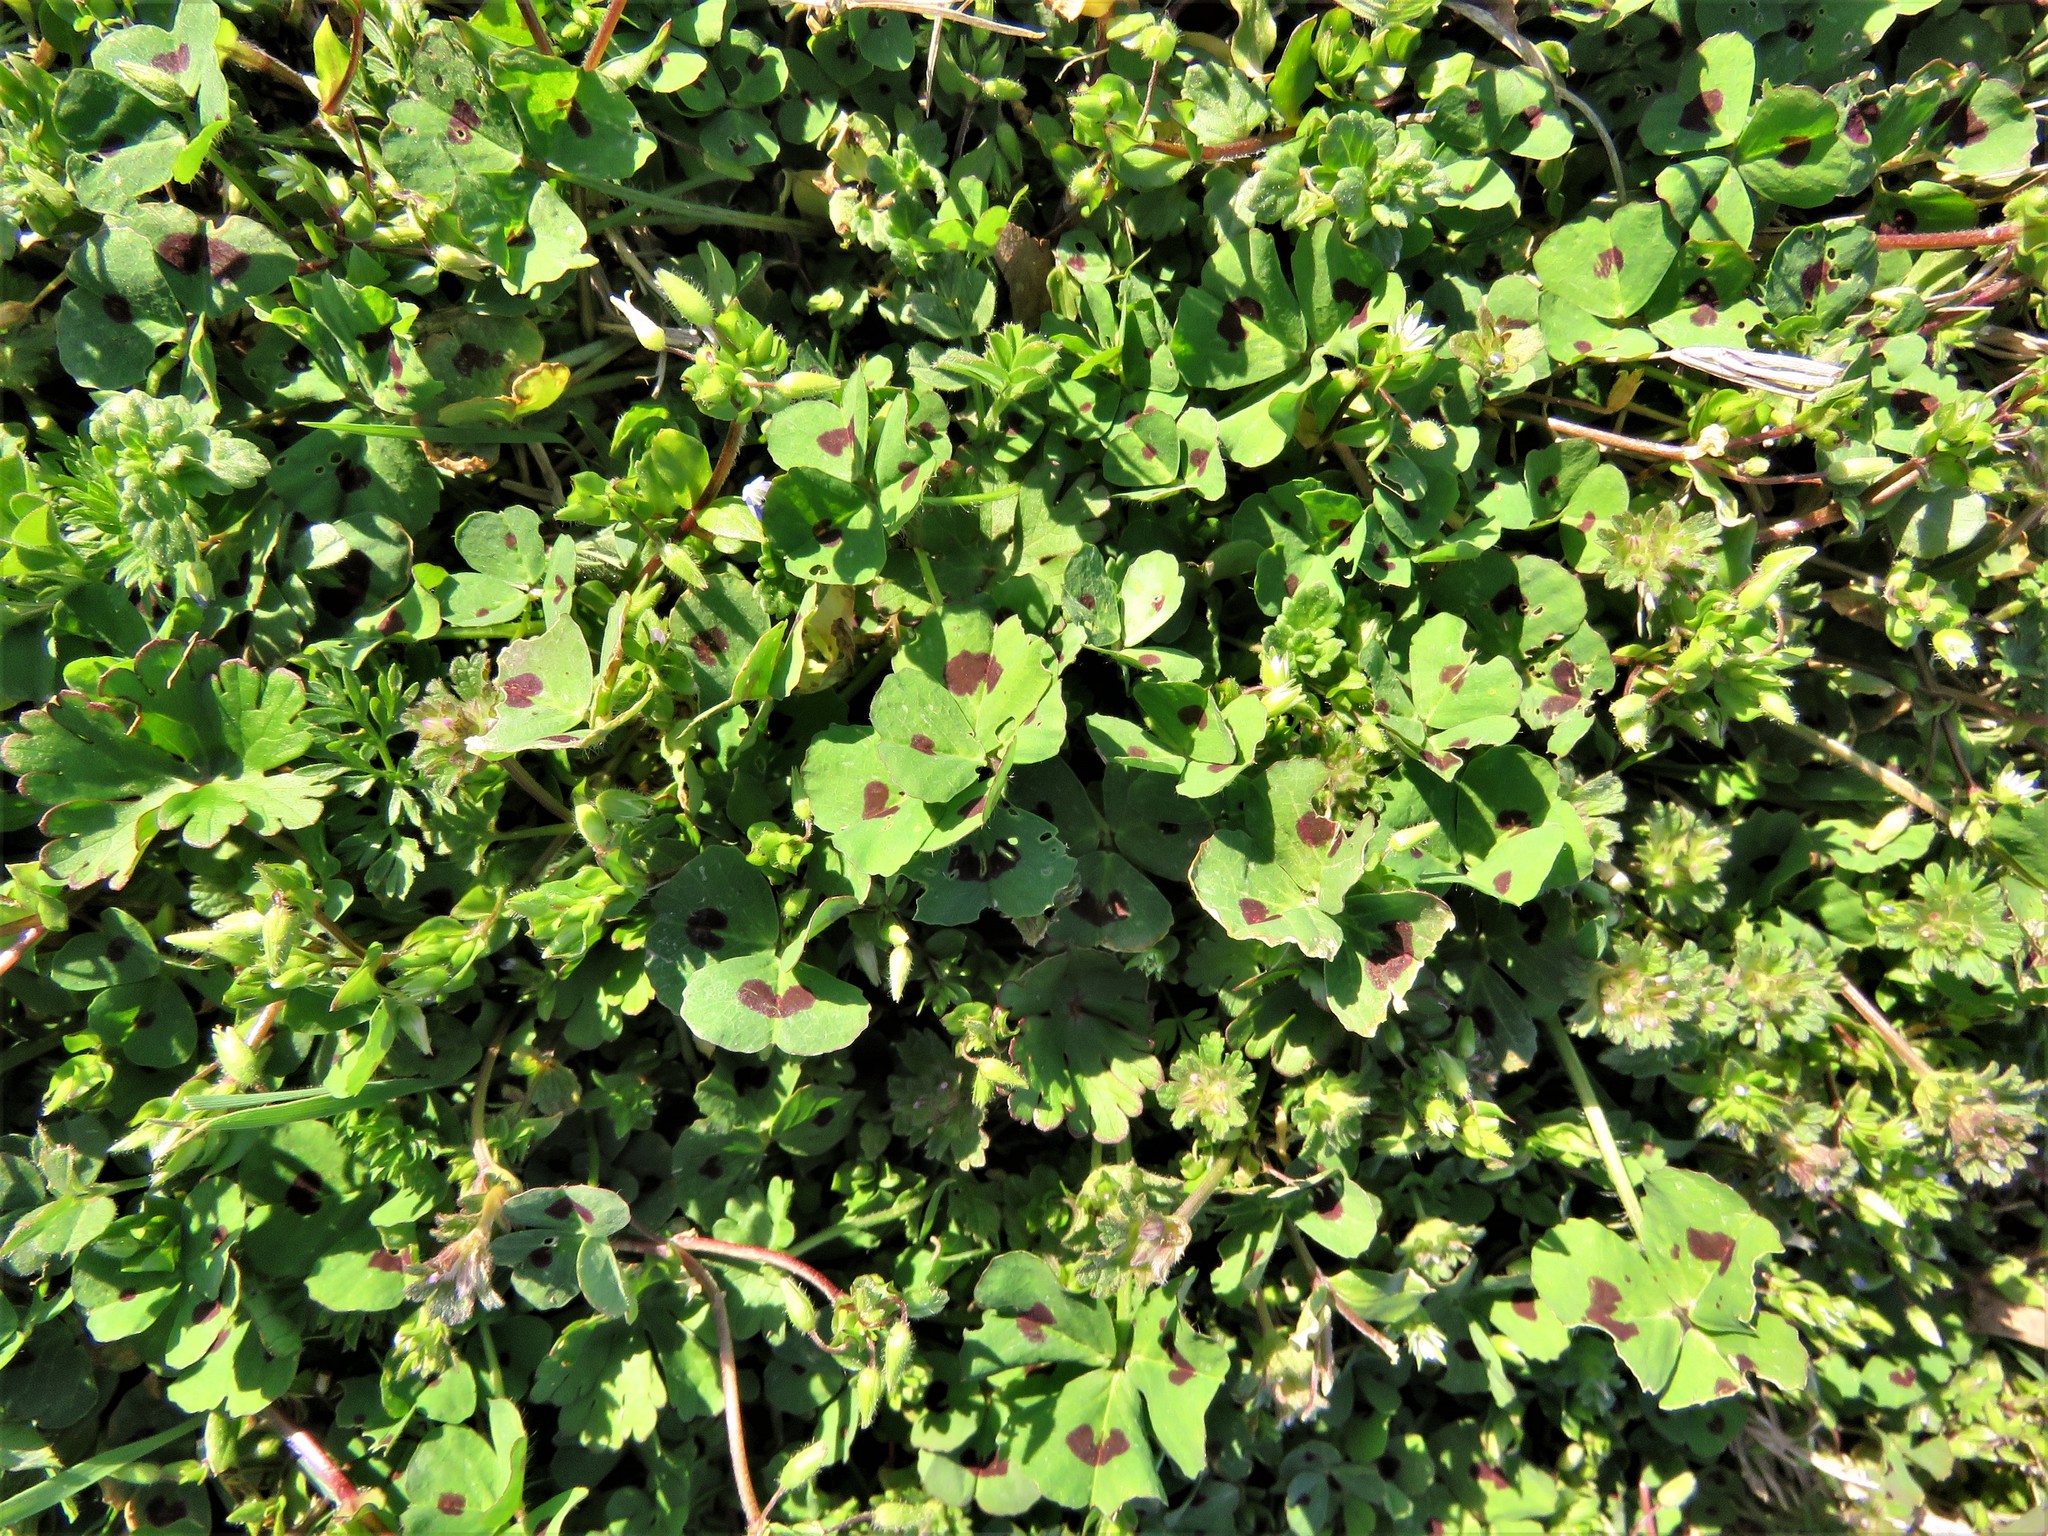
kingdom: Plantae
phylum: Tracheophyta
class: Magnoliopsida
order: Fabales
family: Fabaceae
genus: Medicago
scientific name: Medicago arabica
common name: Spotted medick
